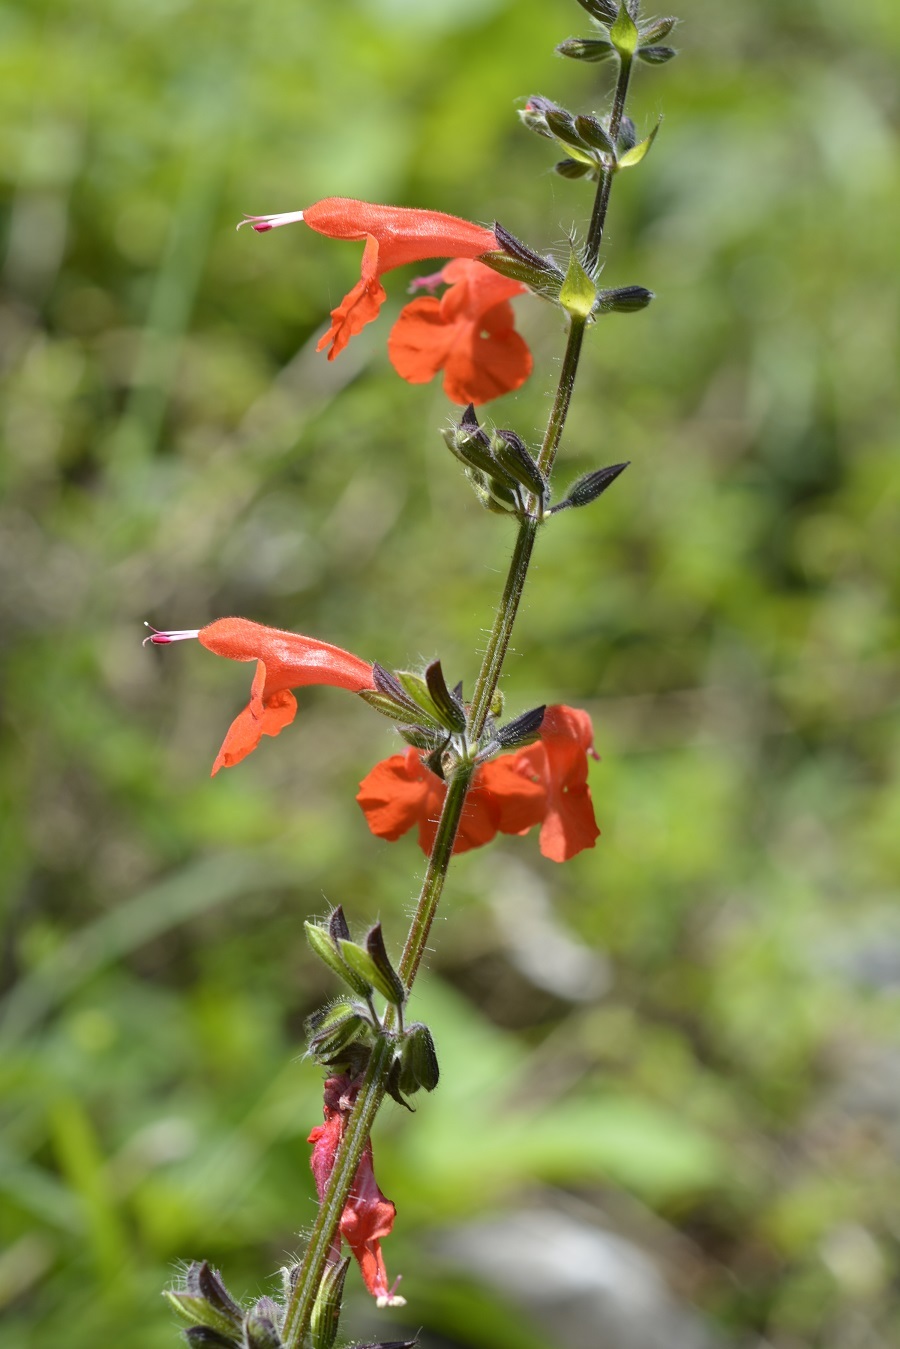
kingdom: Plantae
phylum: Tracheophyta
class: Magnoliopsida
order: Lamiales
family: Lamiaceae
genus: Salvia
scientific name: Salvia coccinea
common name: Blood sage
